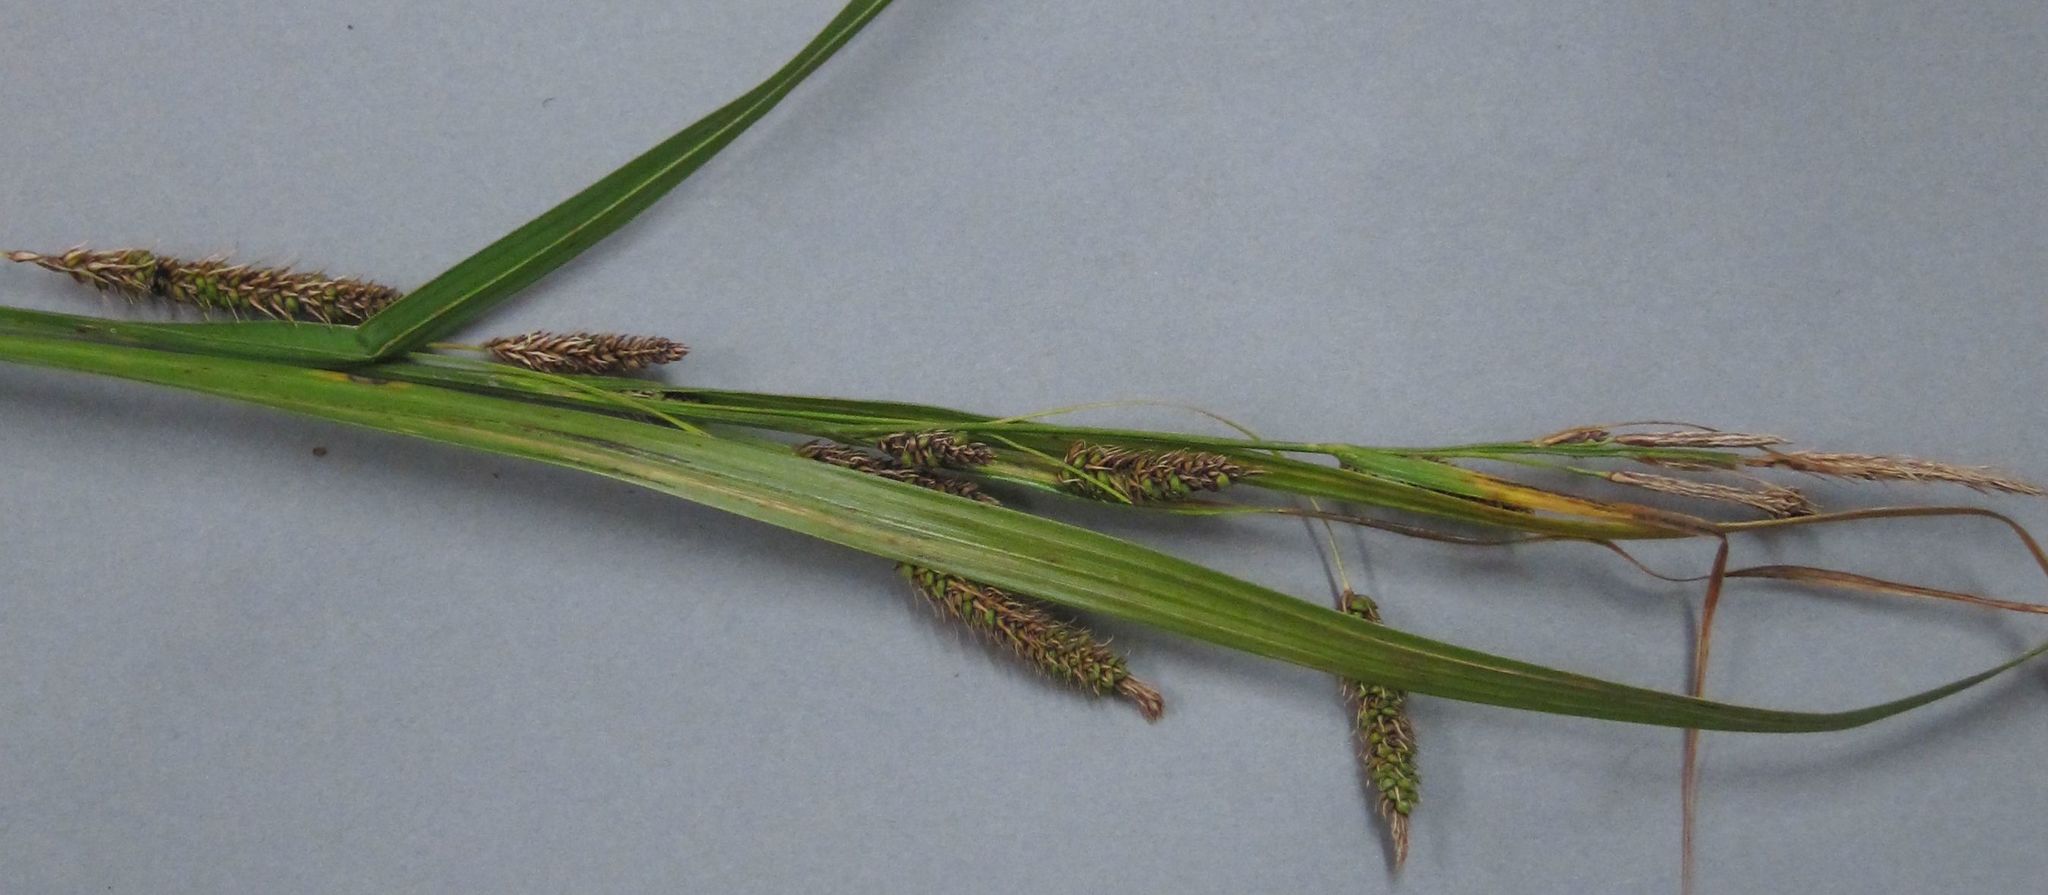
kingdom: Plantae
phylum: Tracheophyta
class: Liliopsida
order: Poales
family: Cyperaceae
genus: Carex
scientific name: Carex geminata
